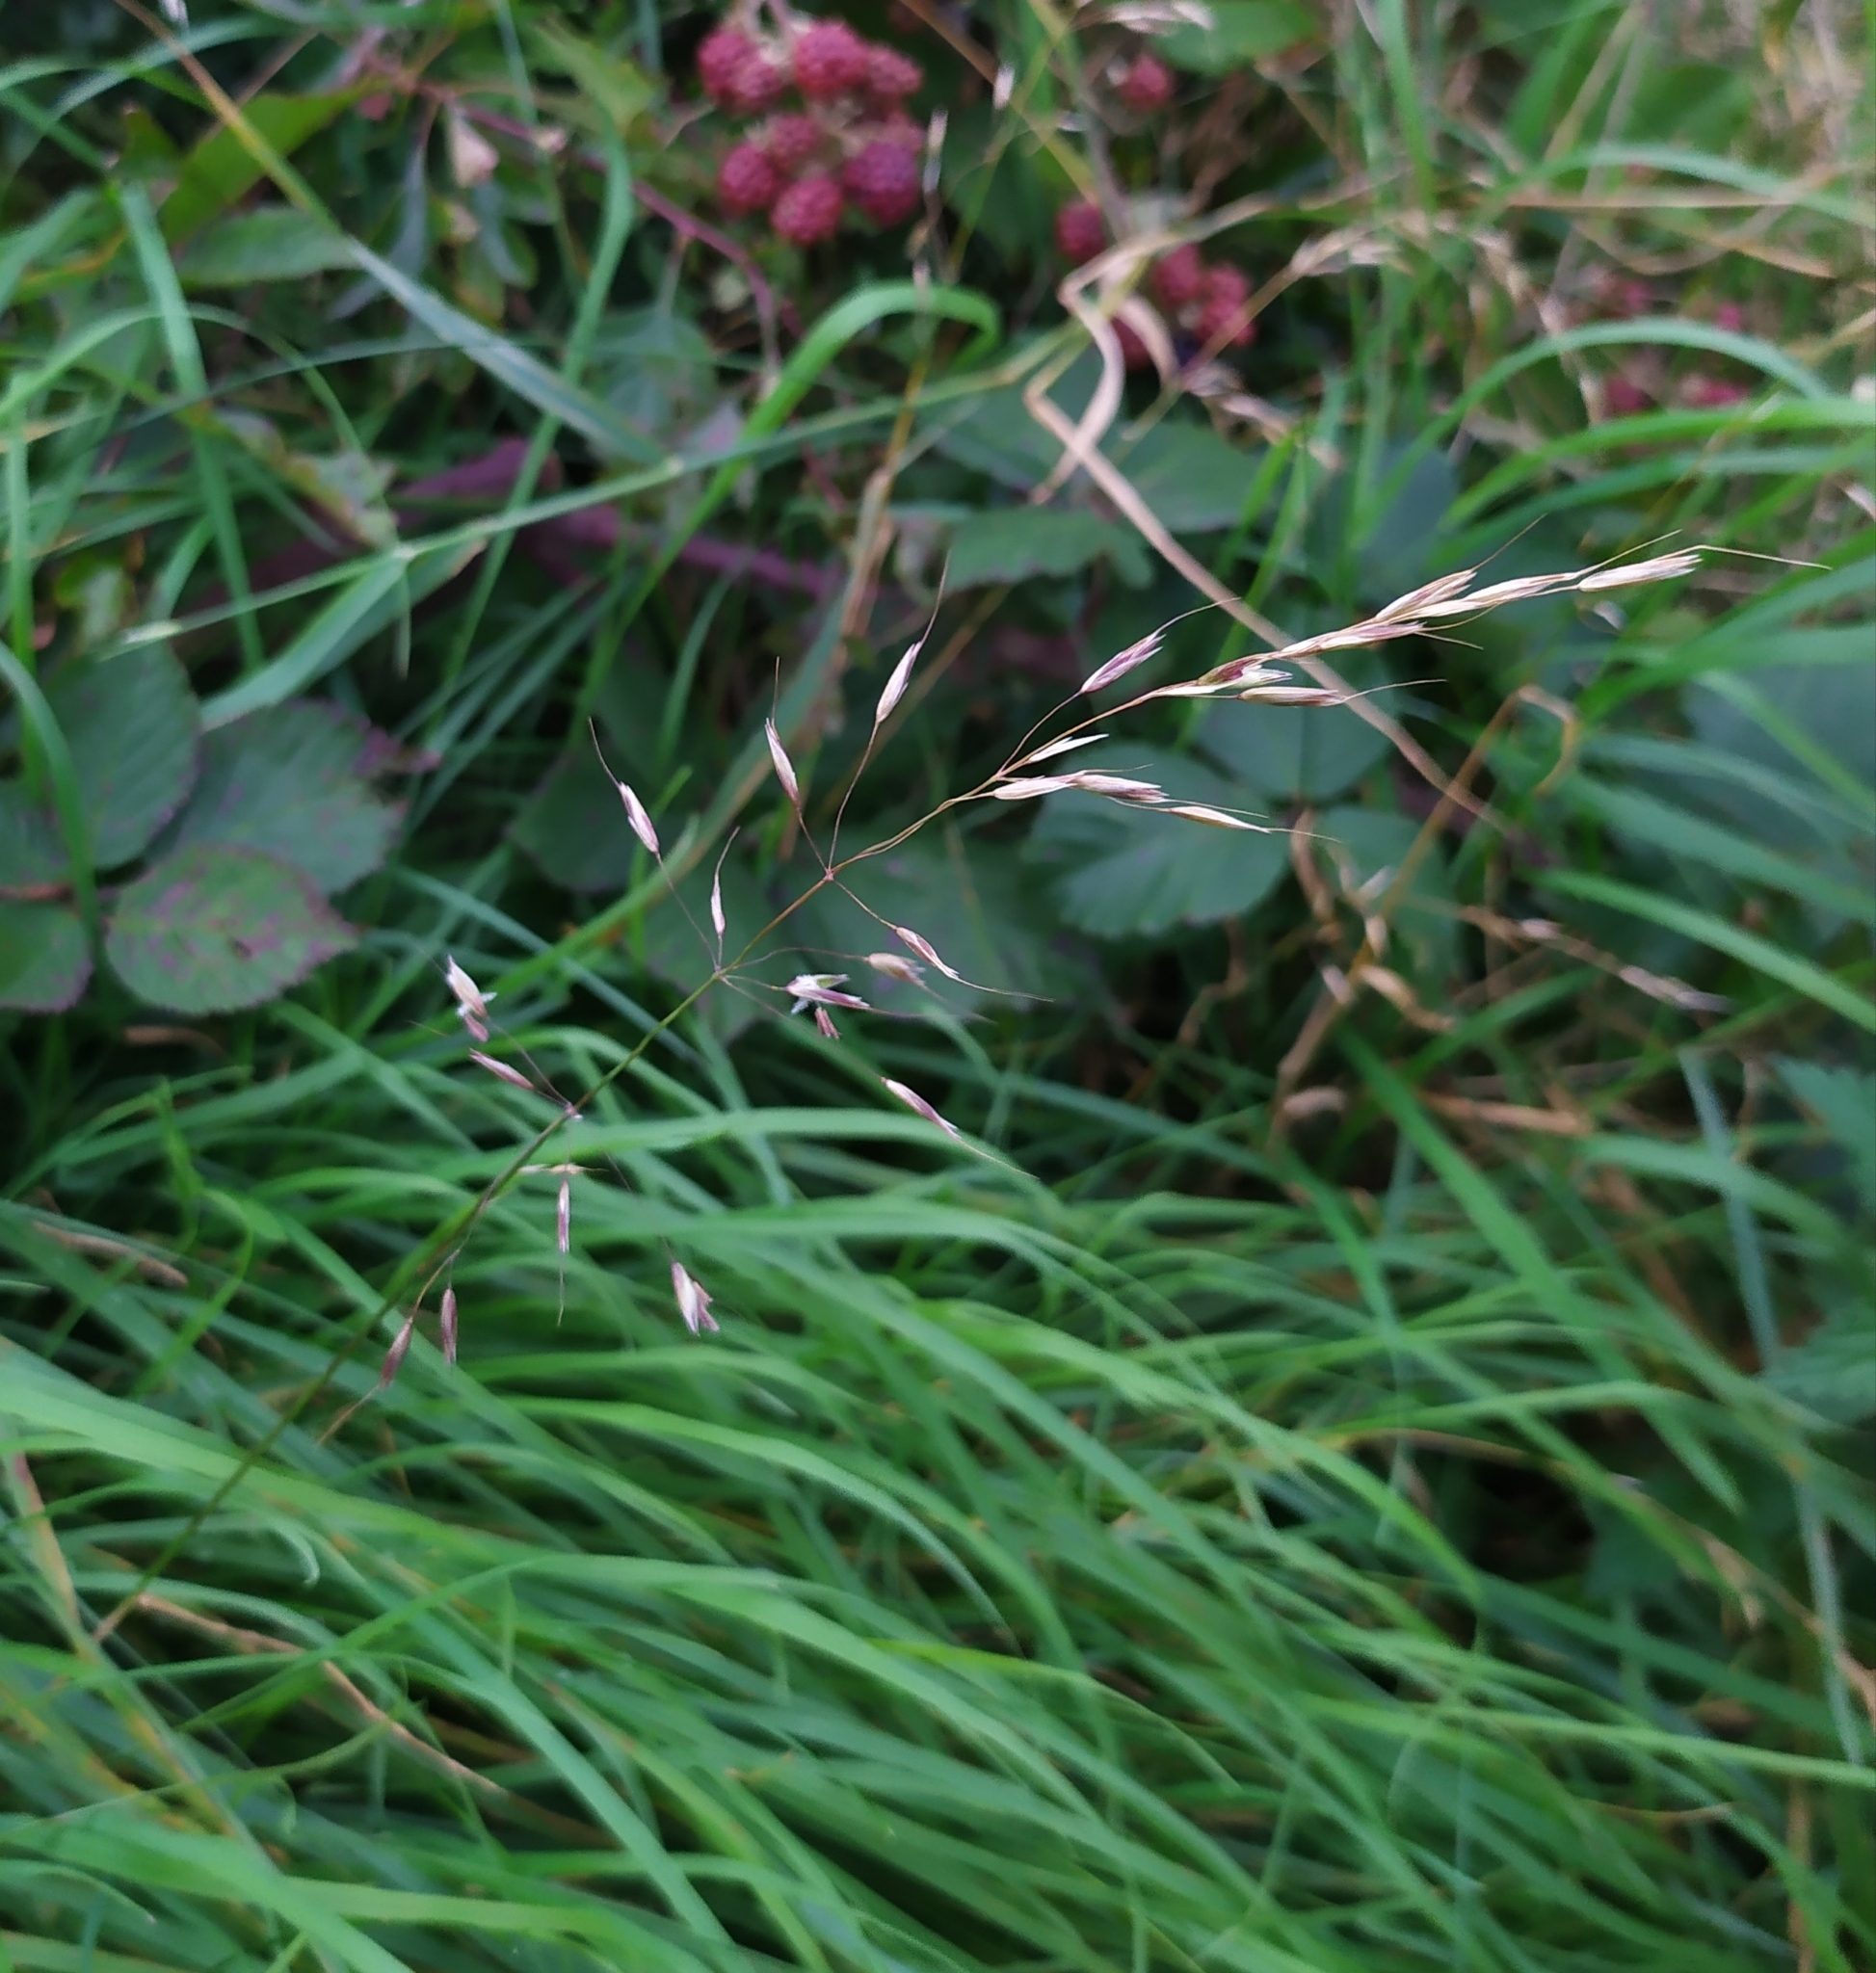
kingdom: Plantae
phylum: Tracheophyta
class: Liliopsida
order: Poales
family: Poaceae
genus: Arrhenatherum
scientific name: Arrhenatherum elatius
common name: Tall oatgrass
